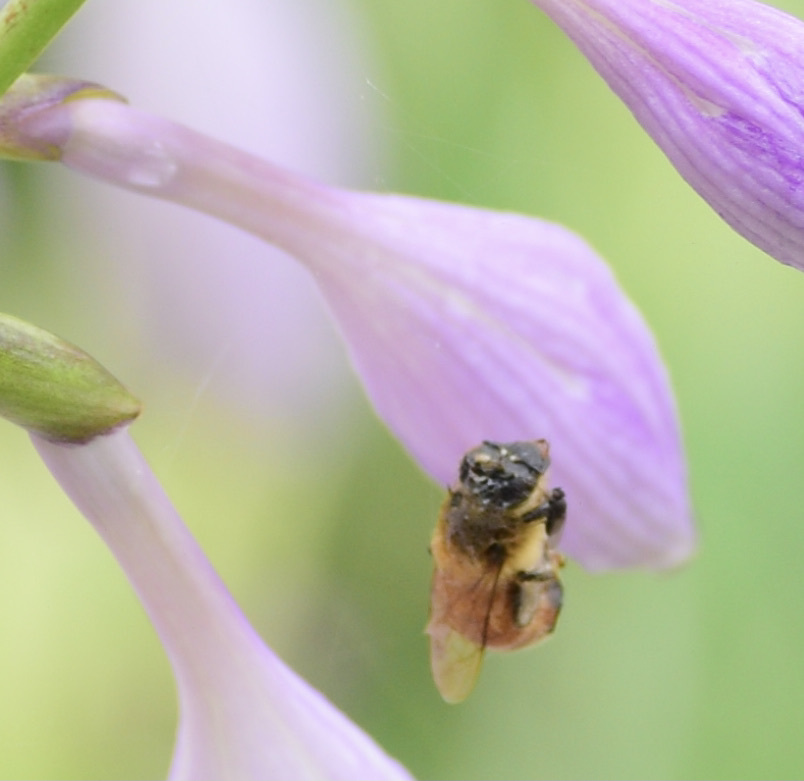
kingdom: Animalia
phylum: Arthropoda
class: Insecta
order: Hymenoptera
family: Apidae
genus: Apis
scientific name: Apis mellifera
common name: Honey bee
